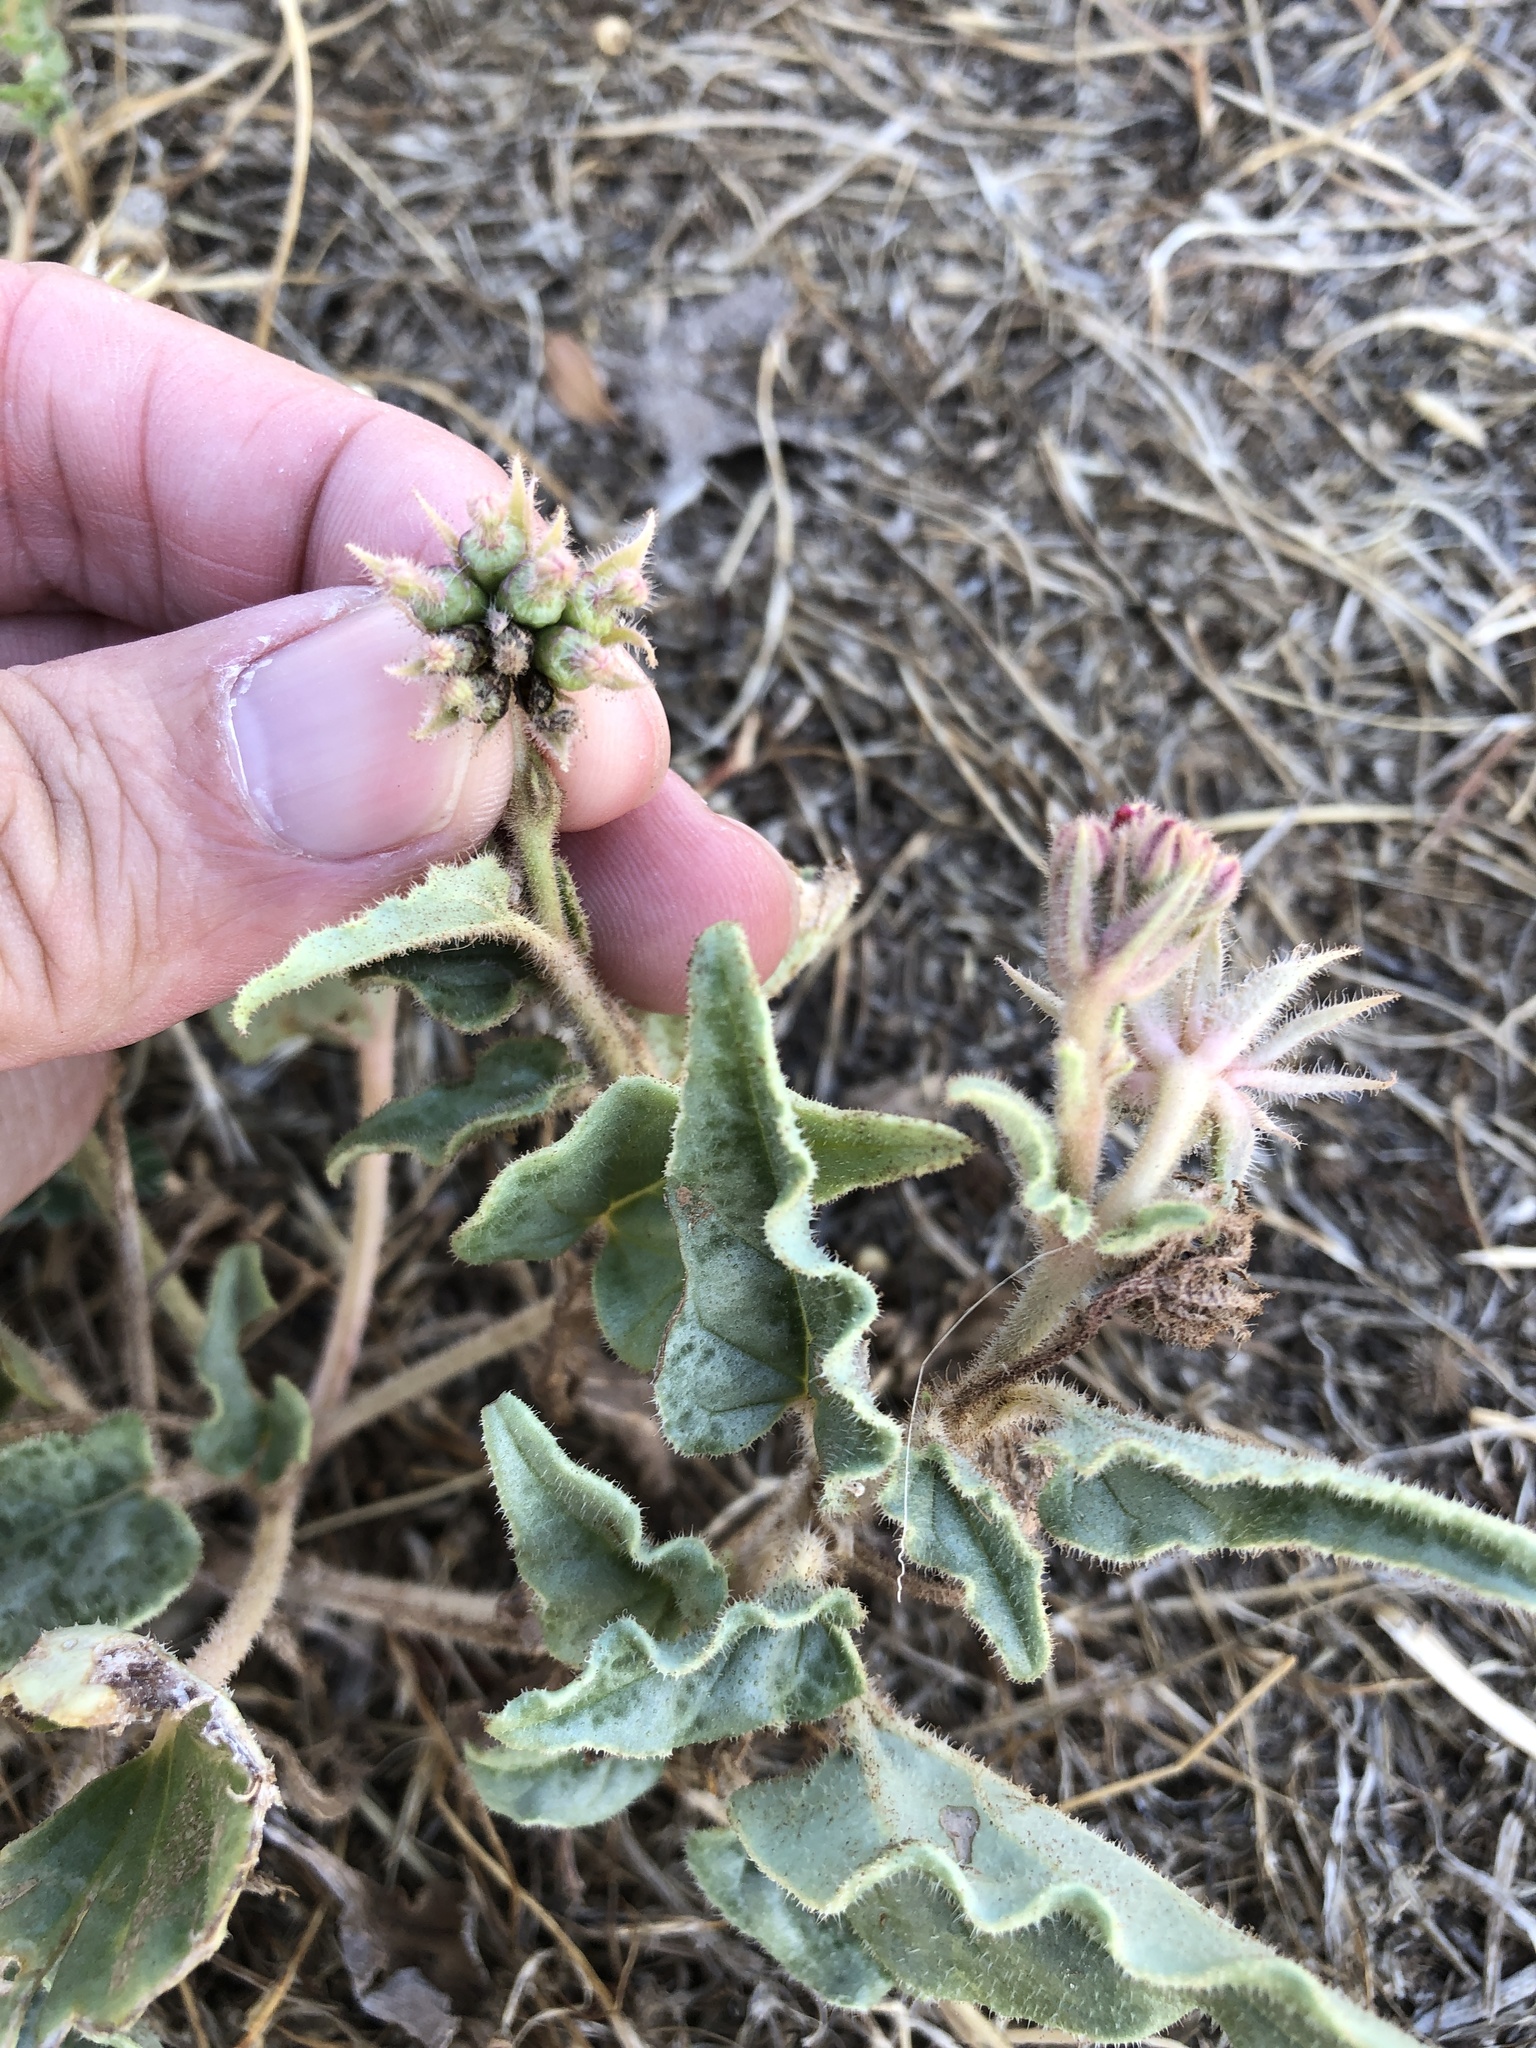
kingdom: Plantae
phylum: Tracheophyta
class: Magnoliopsida
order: Caryophyllales
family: Nyctaginaceae
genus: Nyctaginia
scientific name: Nyctaginia capitata
